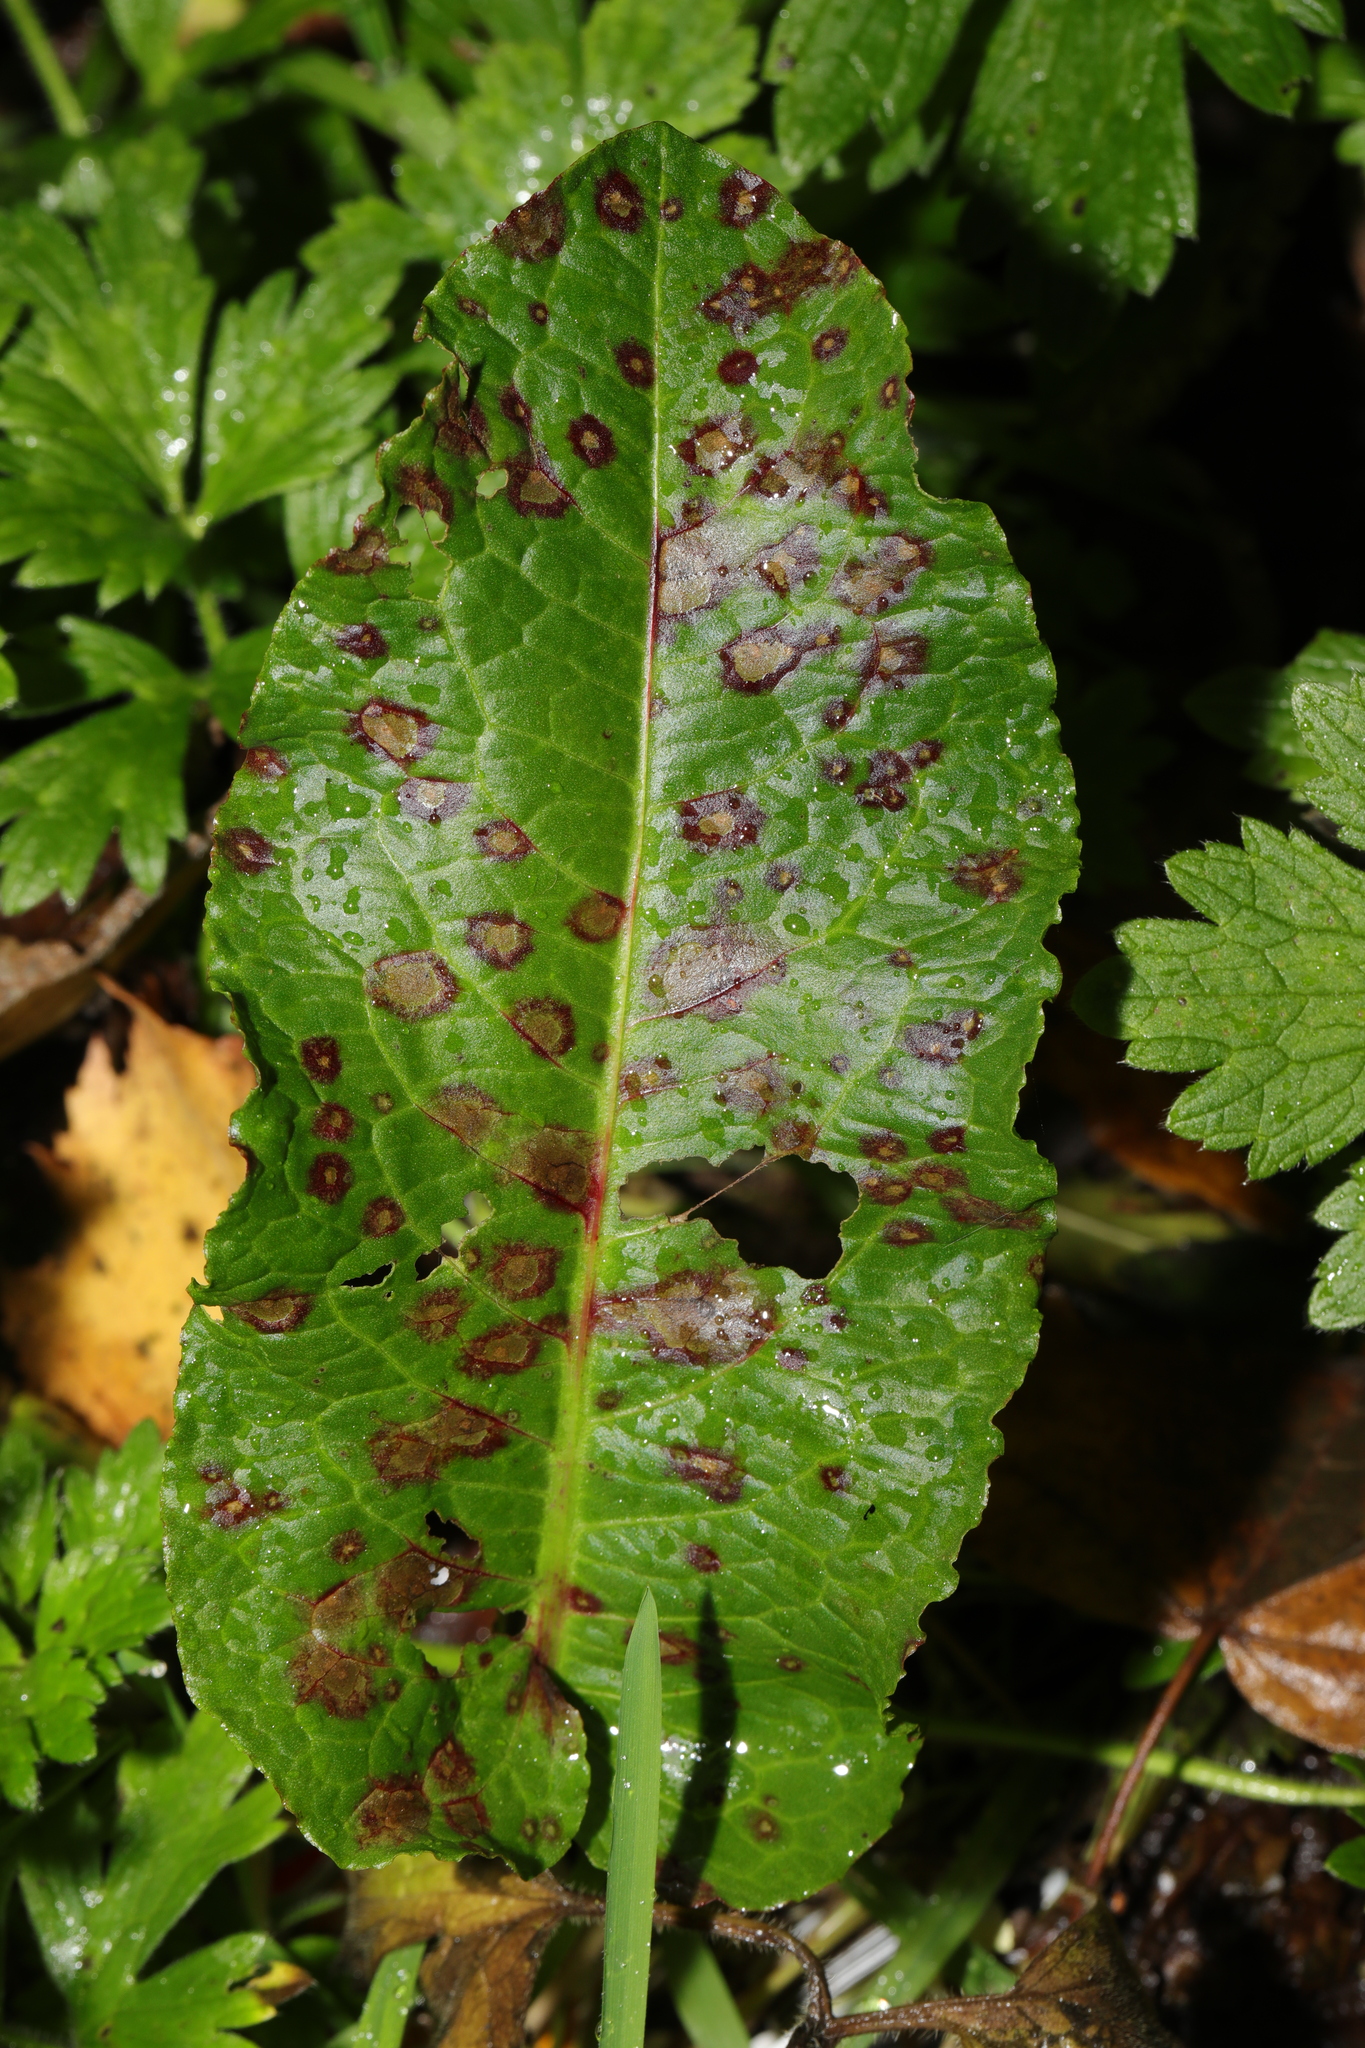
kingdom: Plantae
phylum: Tracheophyta
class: Magnoliopsida
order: Caryophyllales
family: Polygonaceae
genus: Rumex
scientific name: Rumex obtusifolius
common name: Bitter dock
